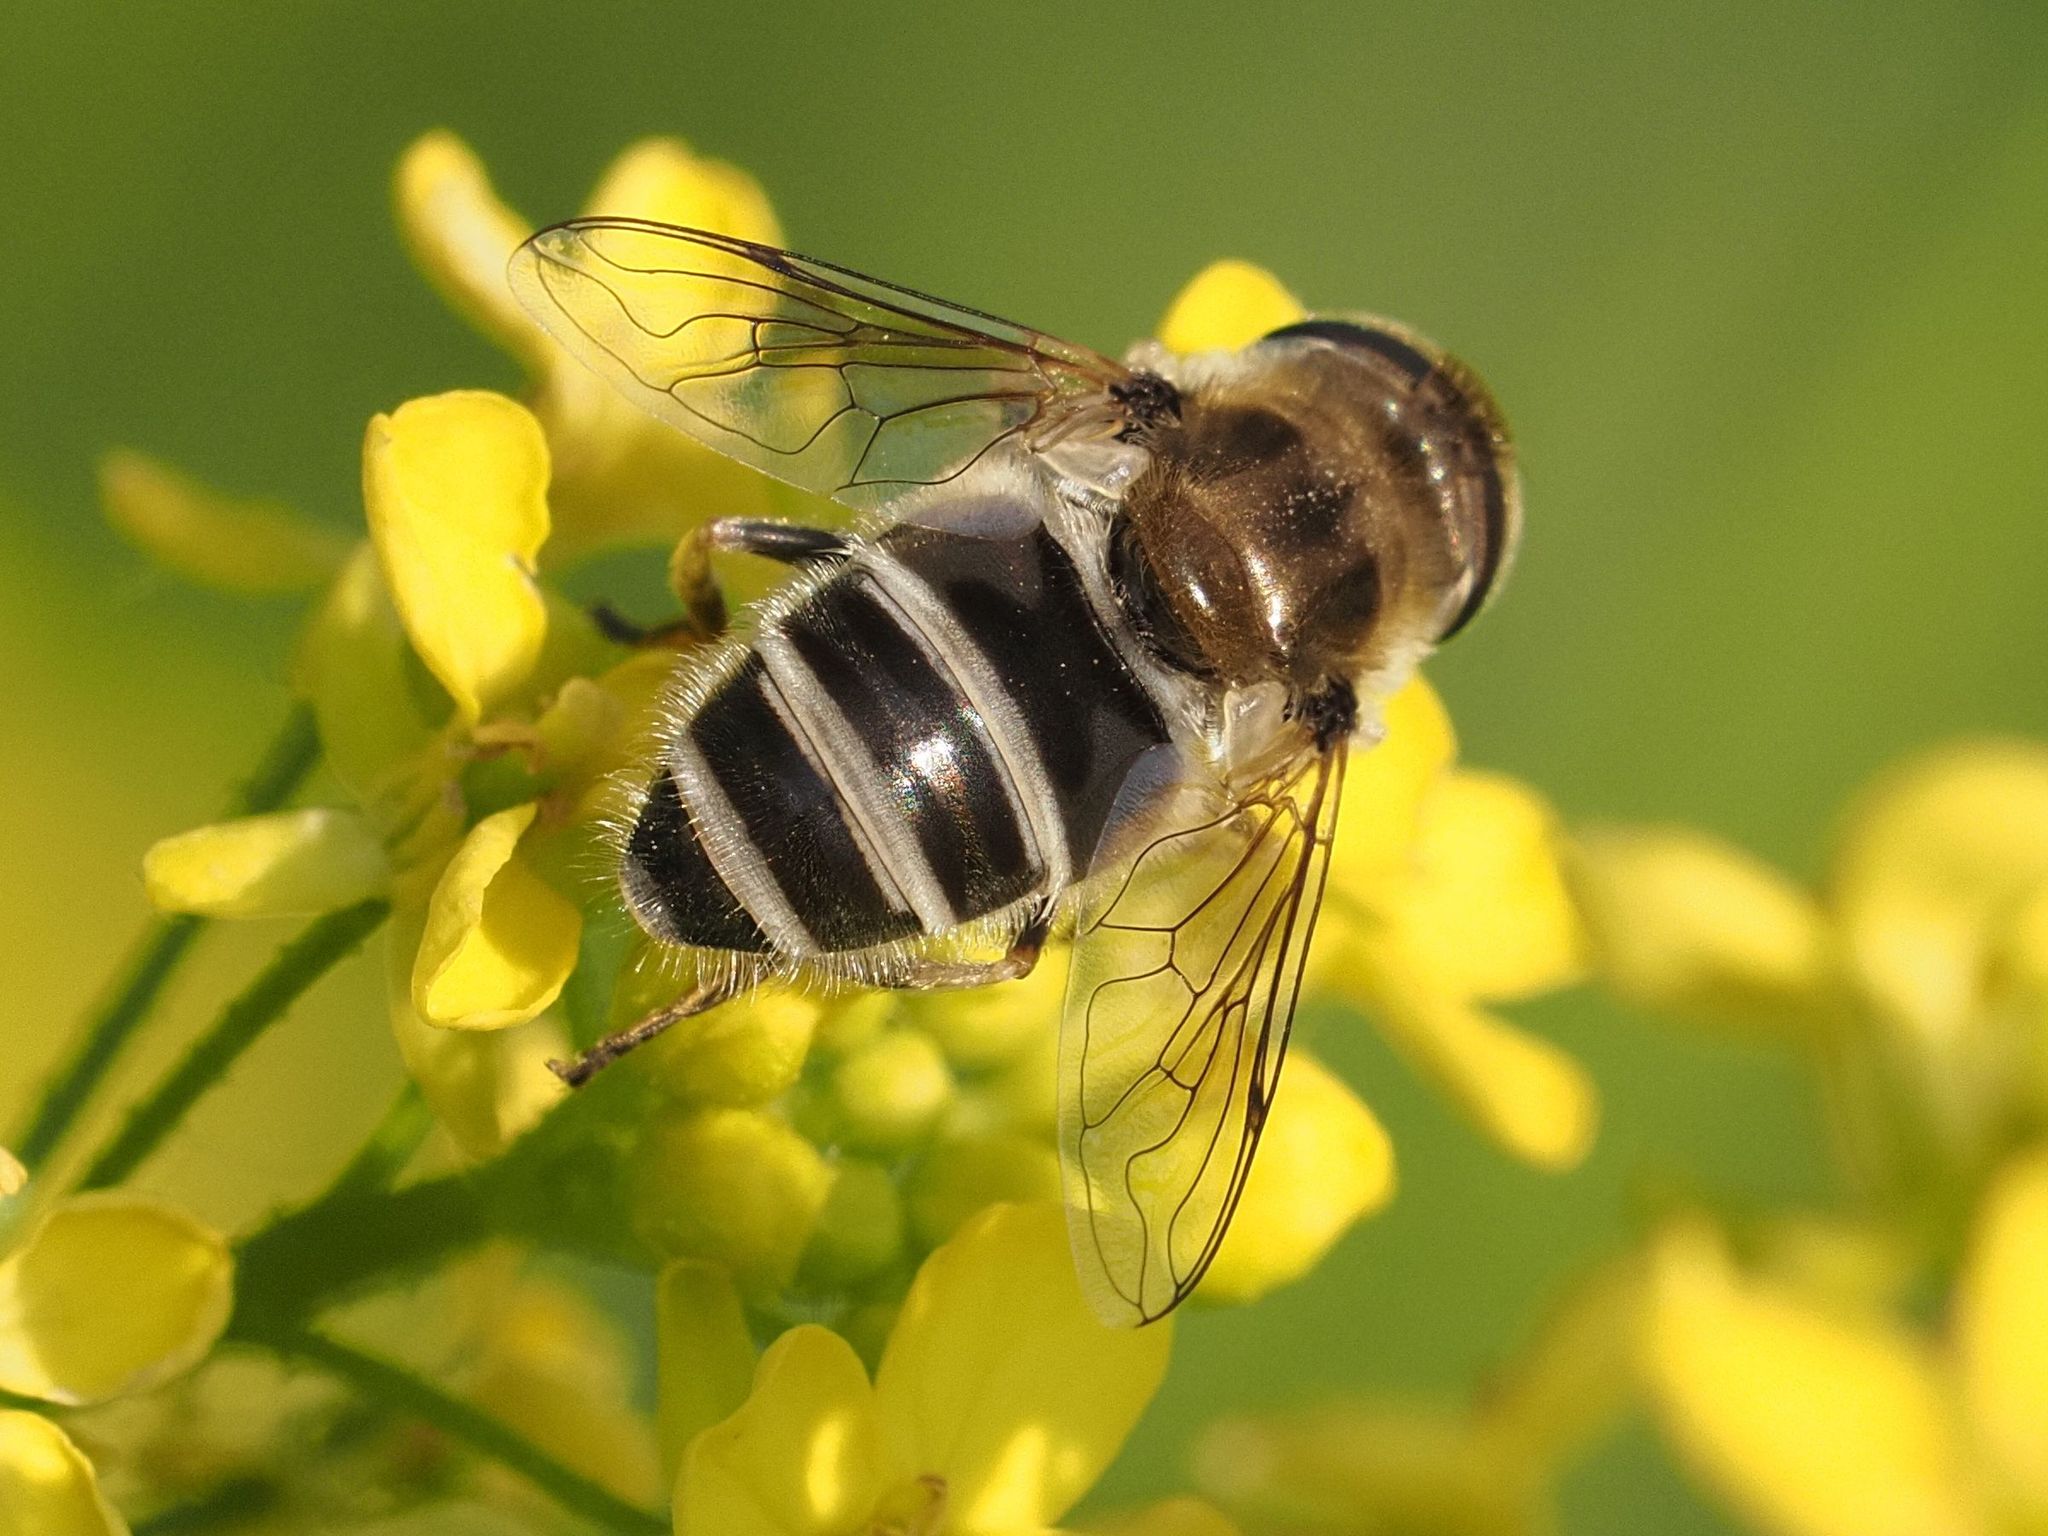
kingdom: Animalia
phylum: Arthropoda
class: Insecta
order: Diptera
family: Syrphidae
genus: Eristalis
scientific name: Eristalis arbustorum
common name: Hover fly
